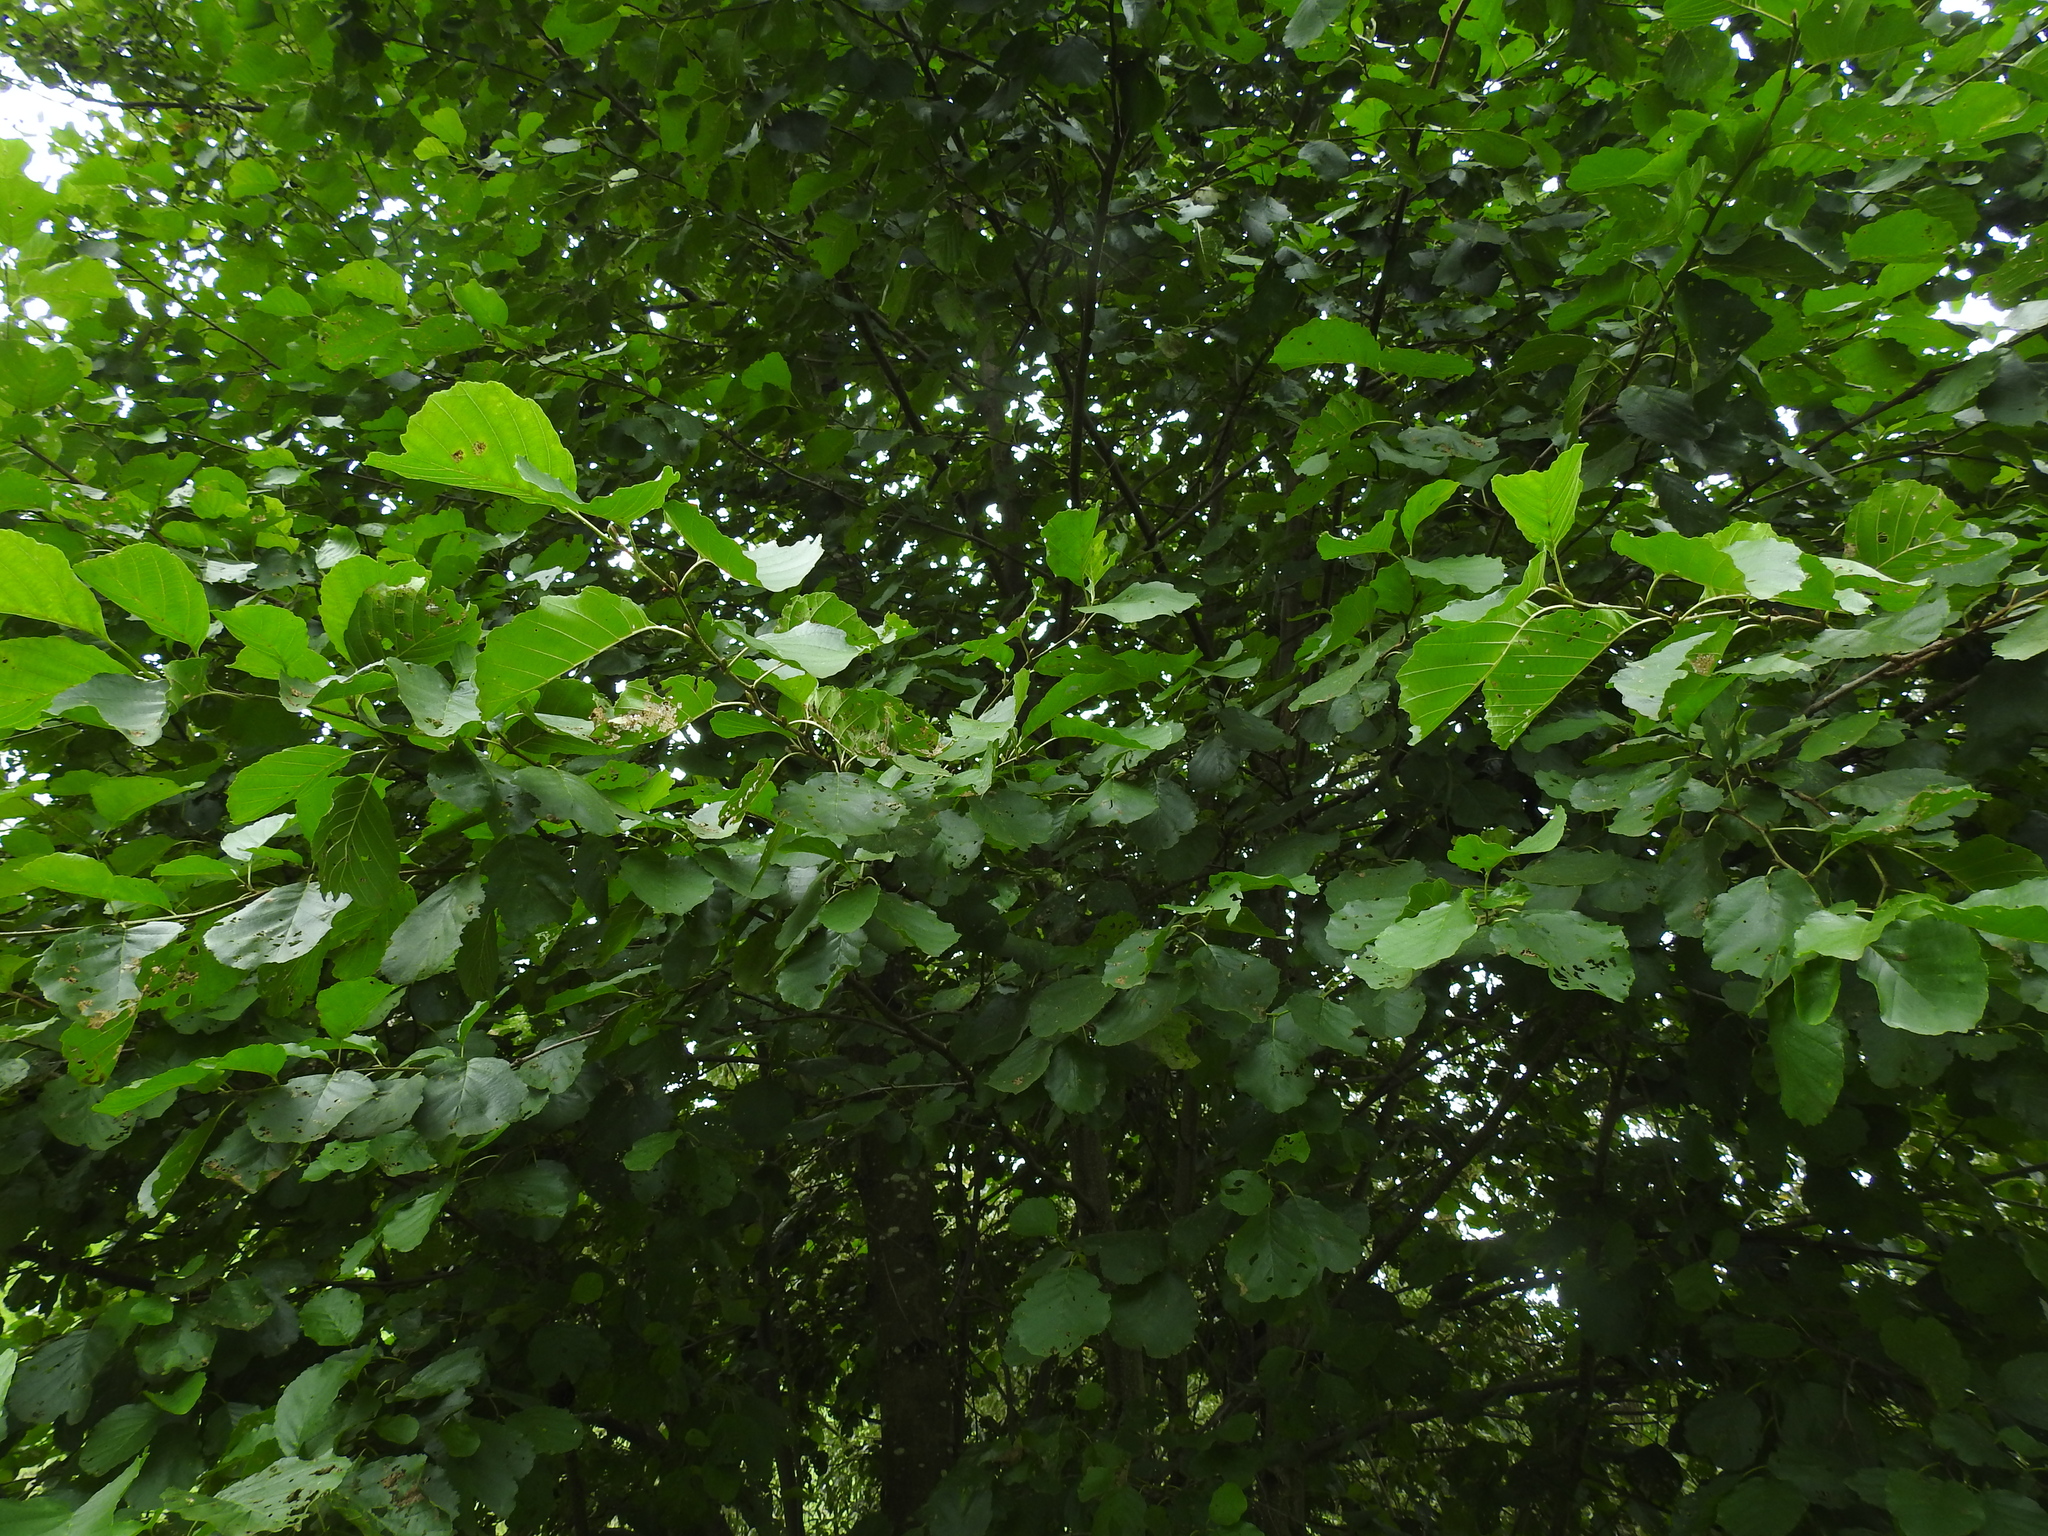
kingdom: Plantae
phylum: Tracheophyta
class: Magnoliopsida
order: Fagales
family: Betulaceae
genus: Alnus
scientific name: Alnus glutinosa
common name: Black alder
